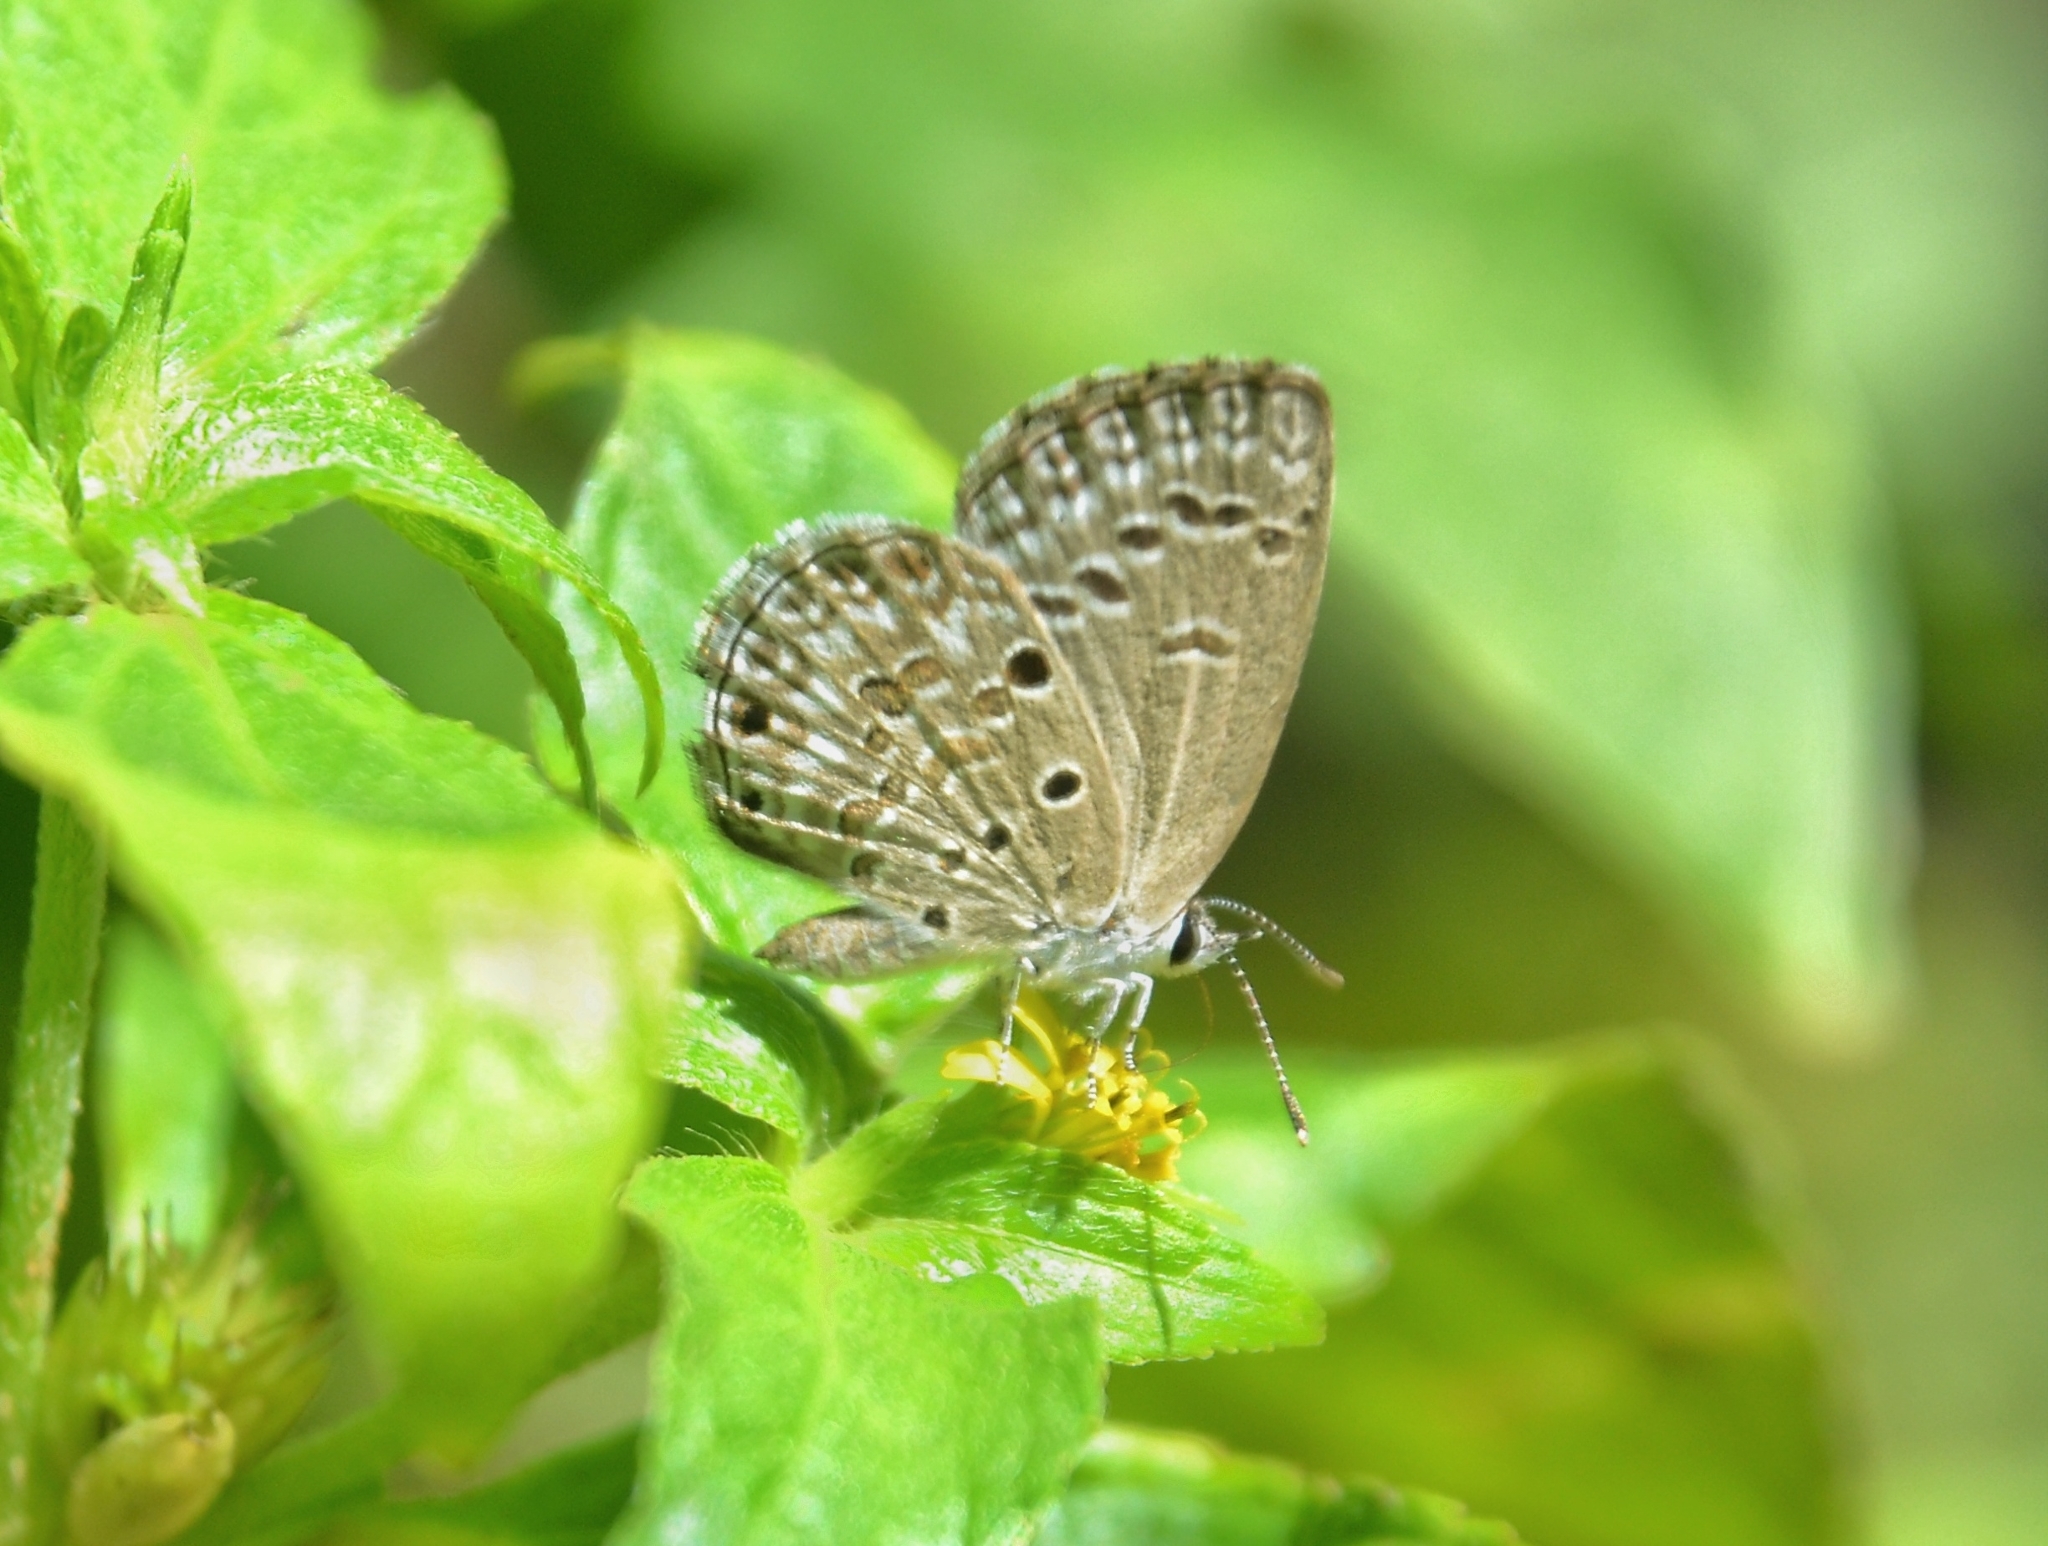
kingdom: Animalia
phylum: Arthropoda
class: Insecta
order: Lepidoptera
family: Lycaenidae
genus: Chilades
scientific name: Chilades laius
